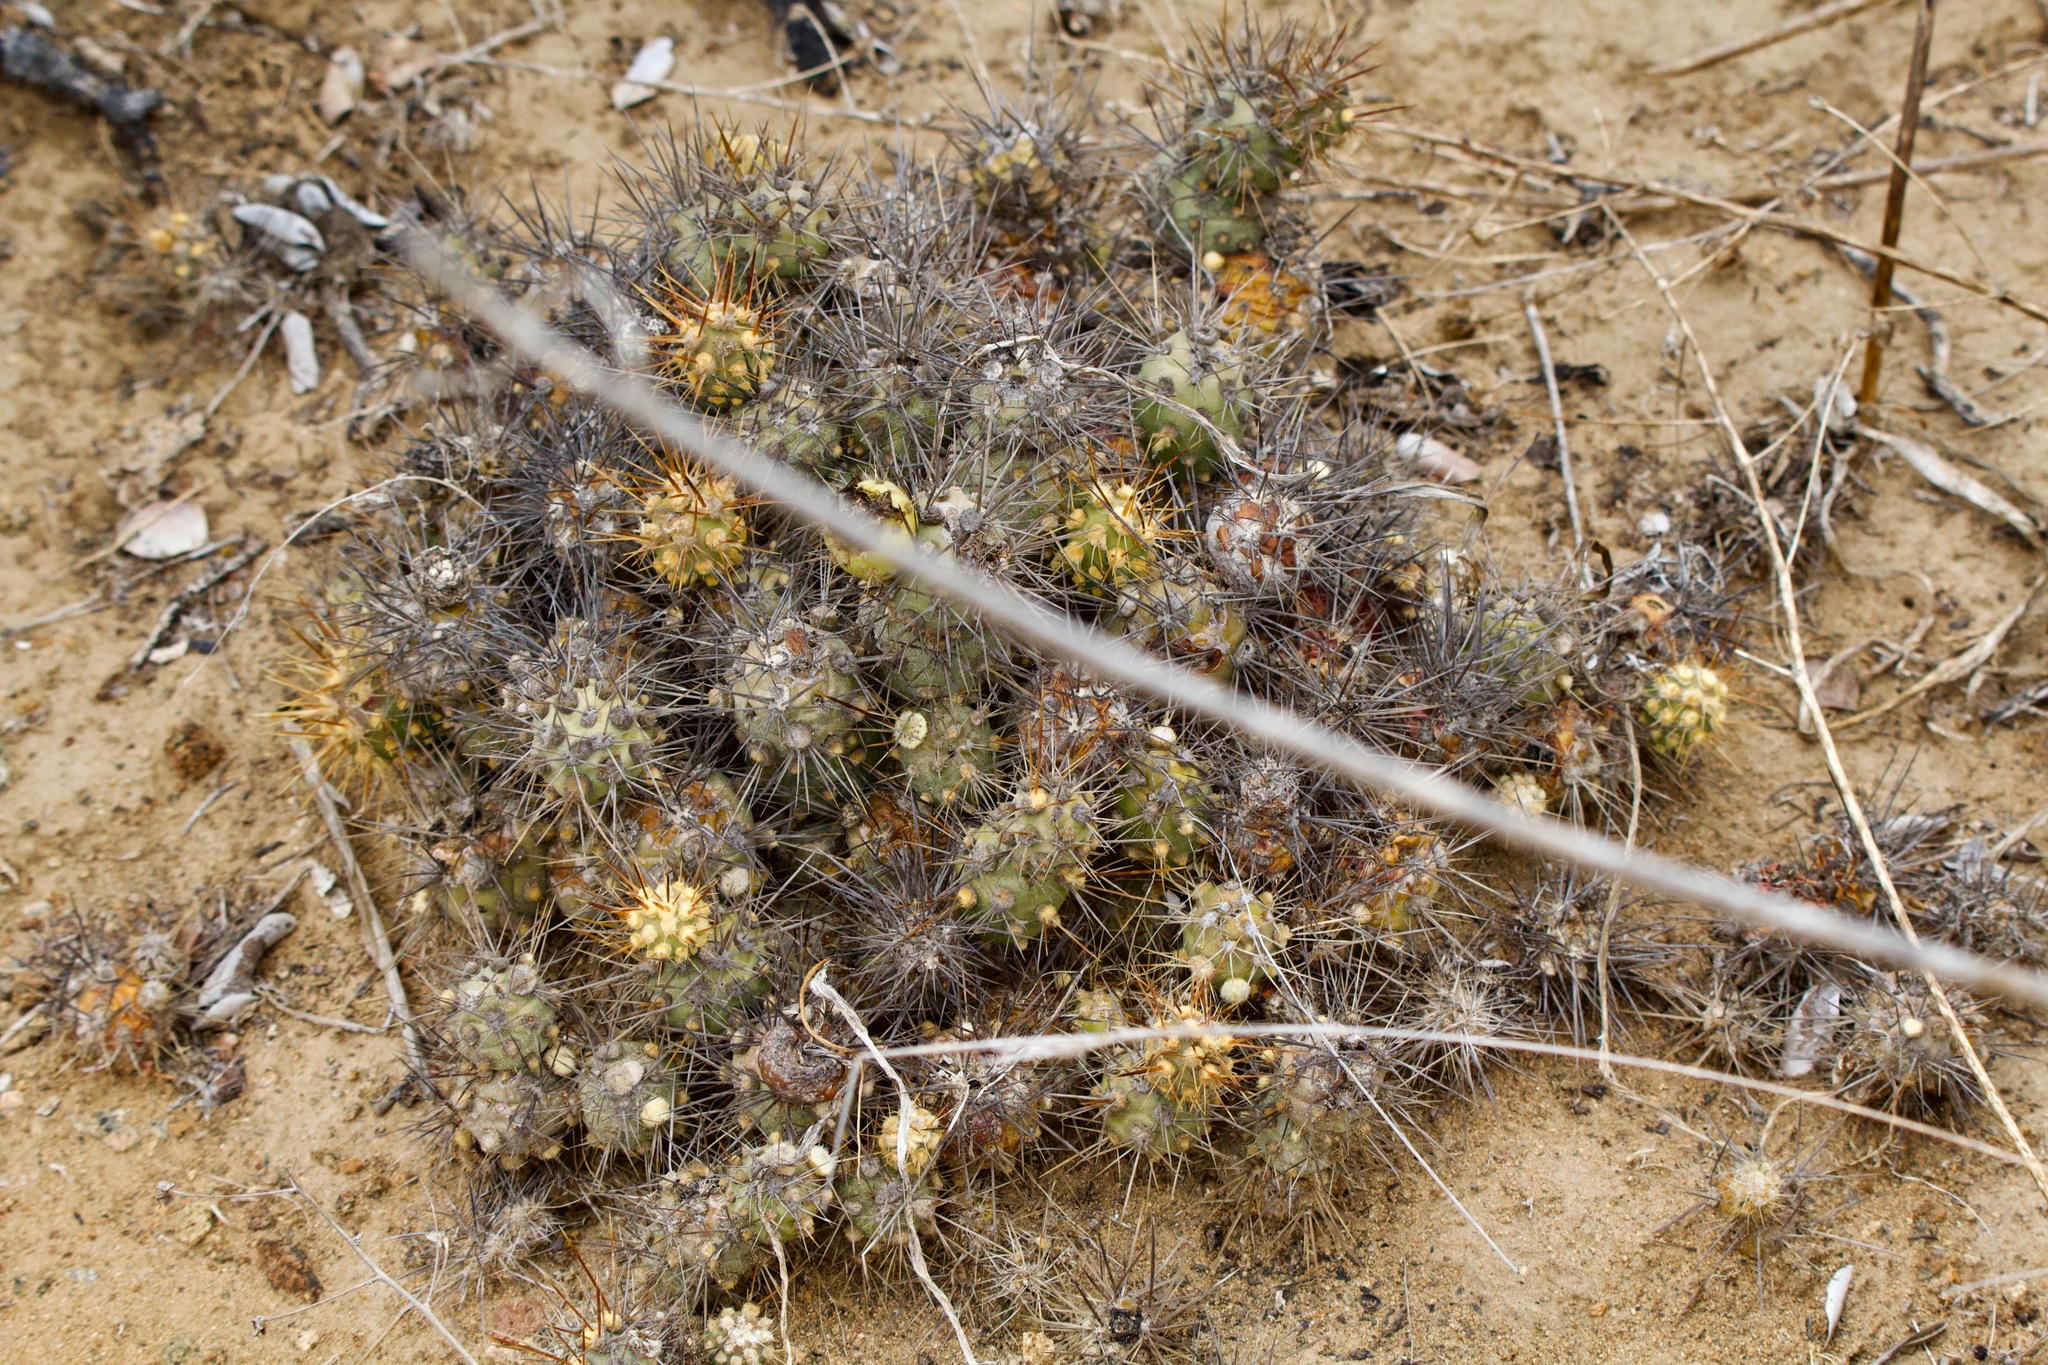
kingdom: Plantae
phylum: Tracheophyta
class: Magnoliopsida
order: Caryophyllales
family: Cactaceae
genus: Cumulopuntia
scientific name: Cumulopuntia leucophaea
